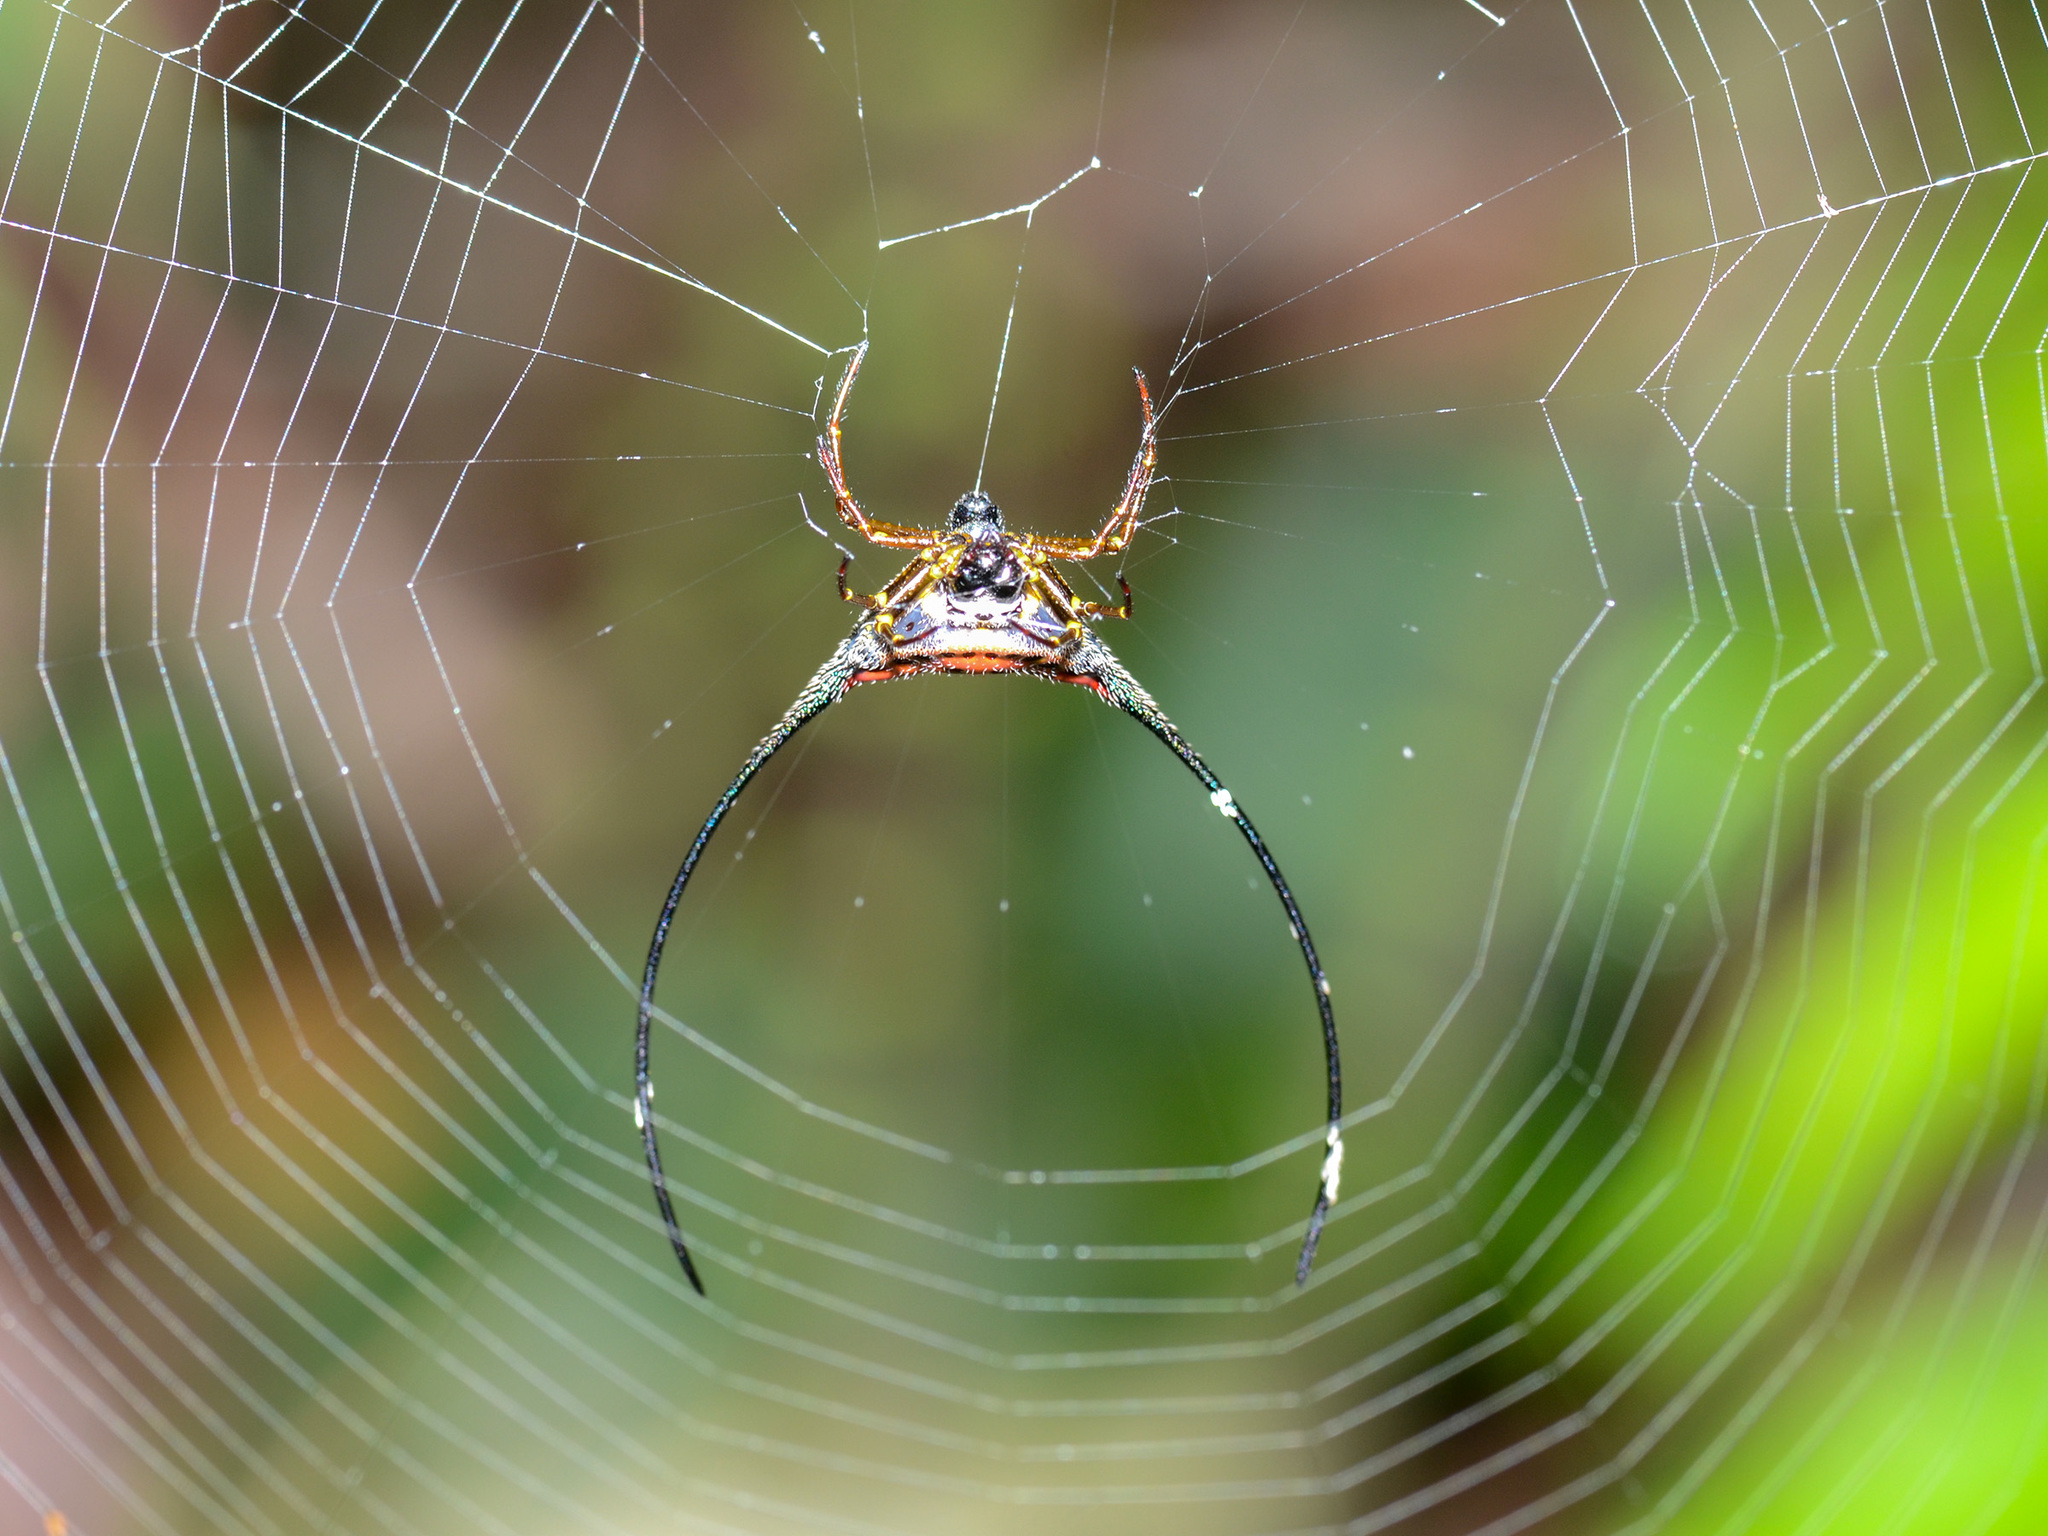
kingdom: Animalia
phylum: Arthropoda
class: Arachnida
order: Araneae
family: Araneidae
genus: Macracantha
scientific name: Macracantha arcuata
